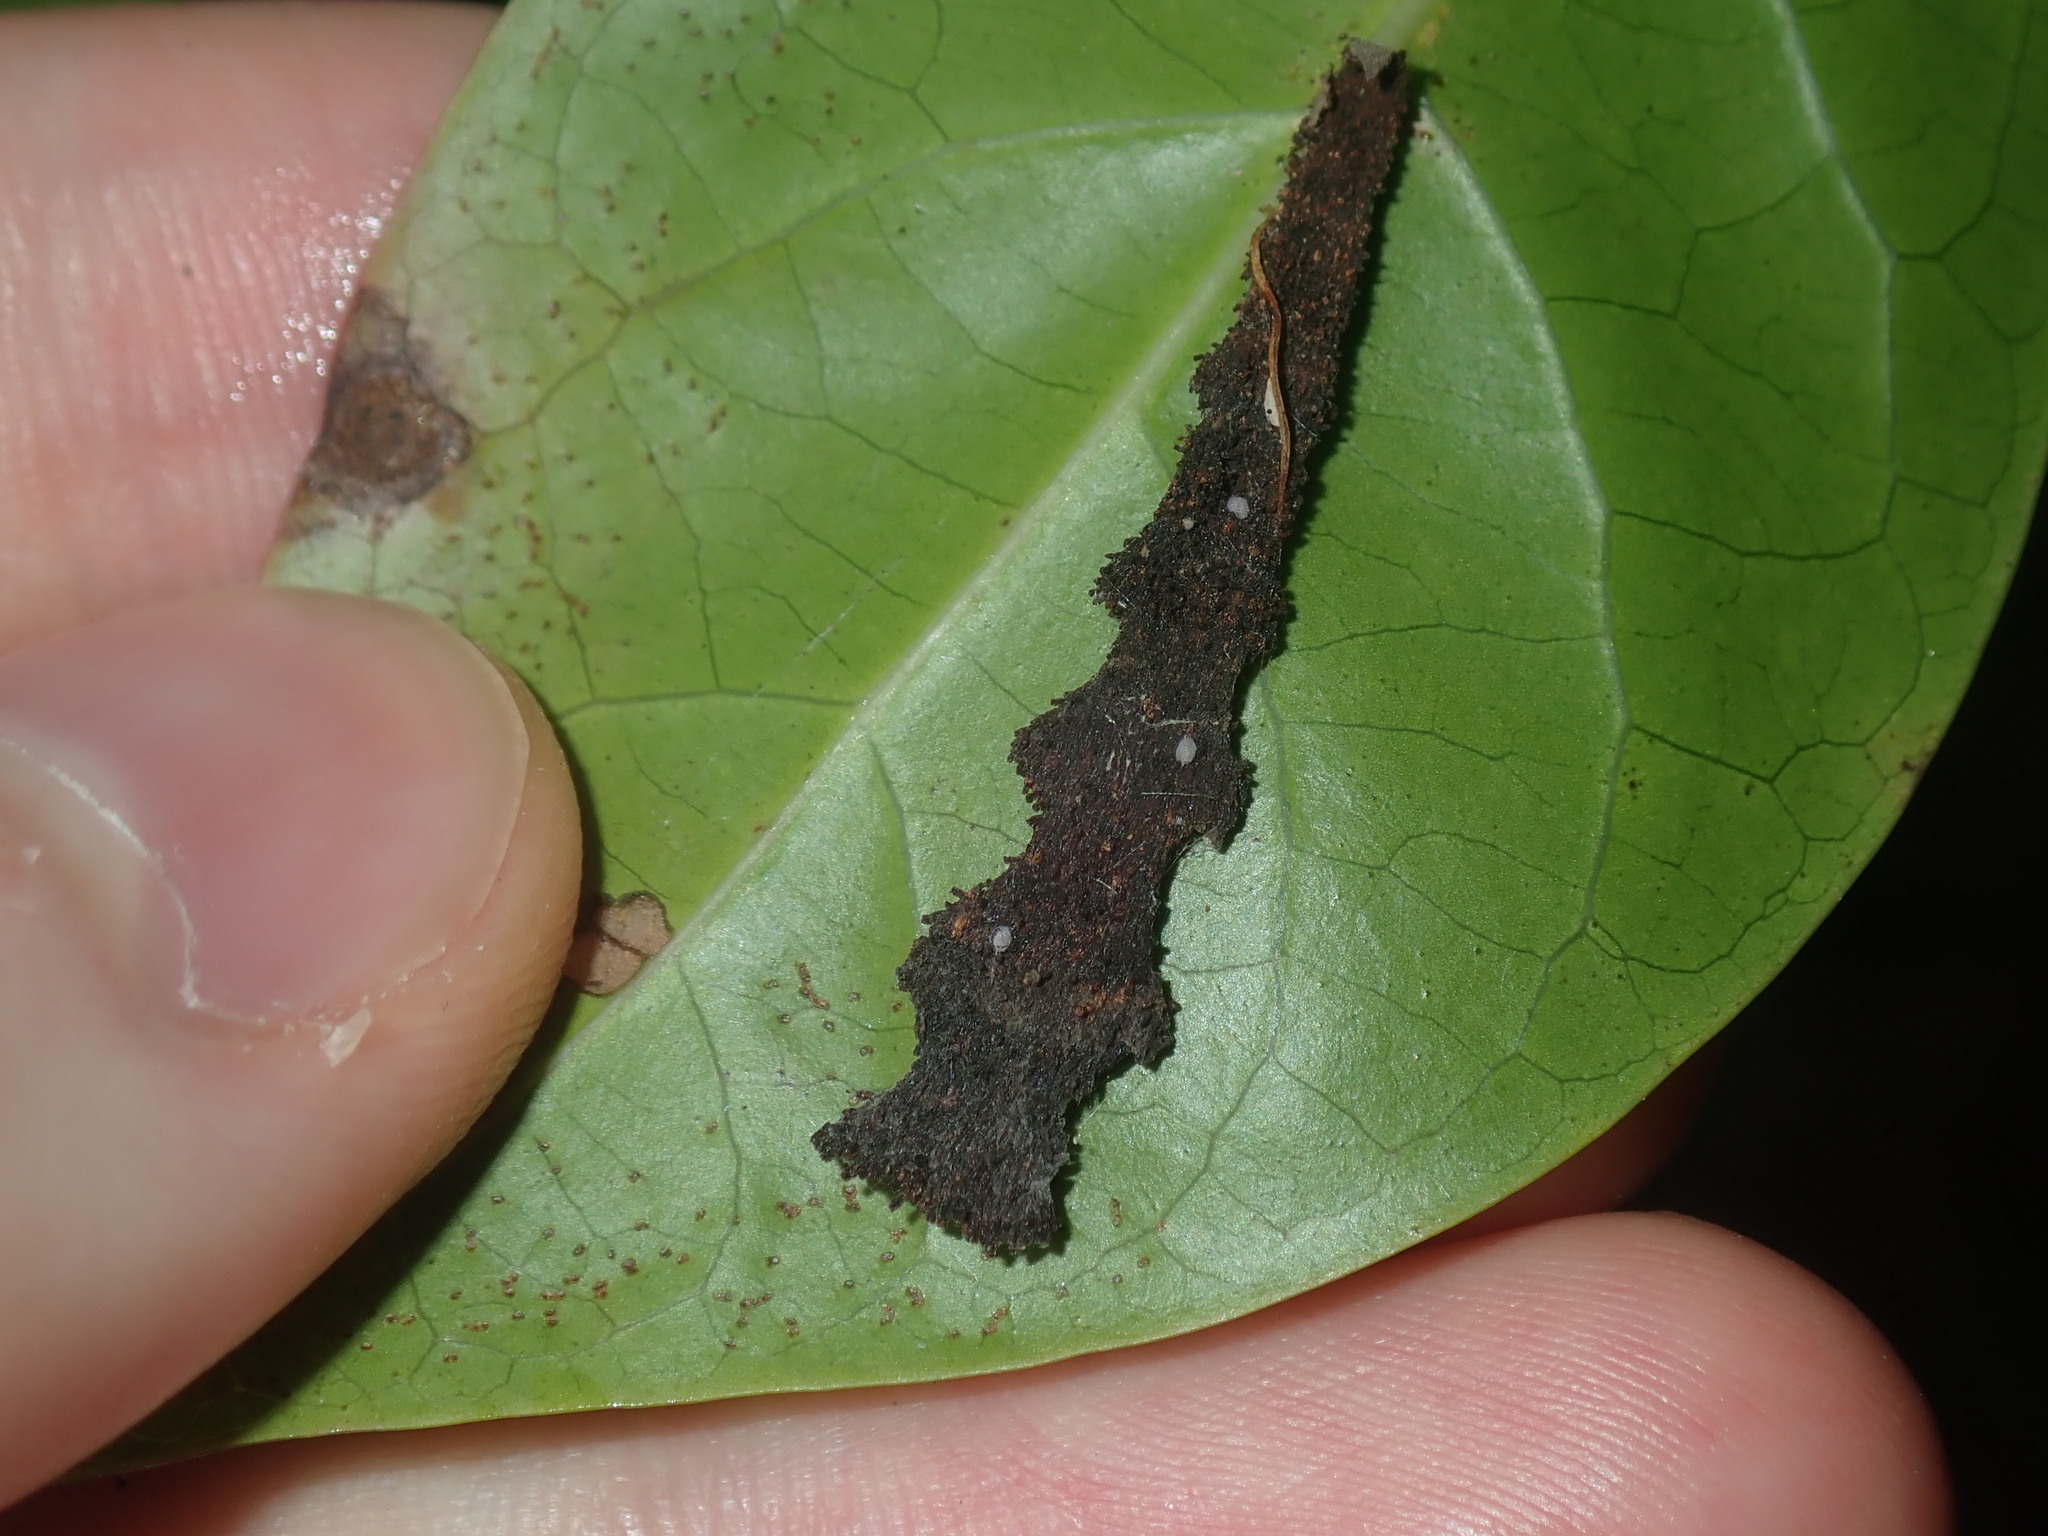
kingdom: Animalia
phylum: Arthropoda
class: Insecta
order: Lepidoptera
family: Pyralidae
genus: Stericta
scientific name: Stericta orchidivora
